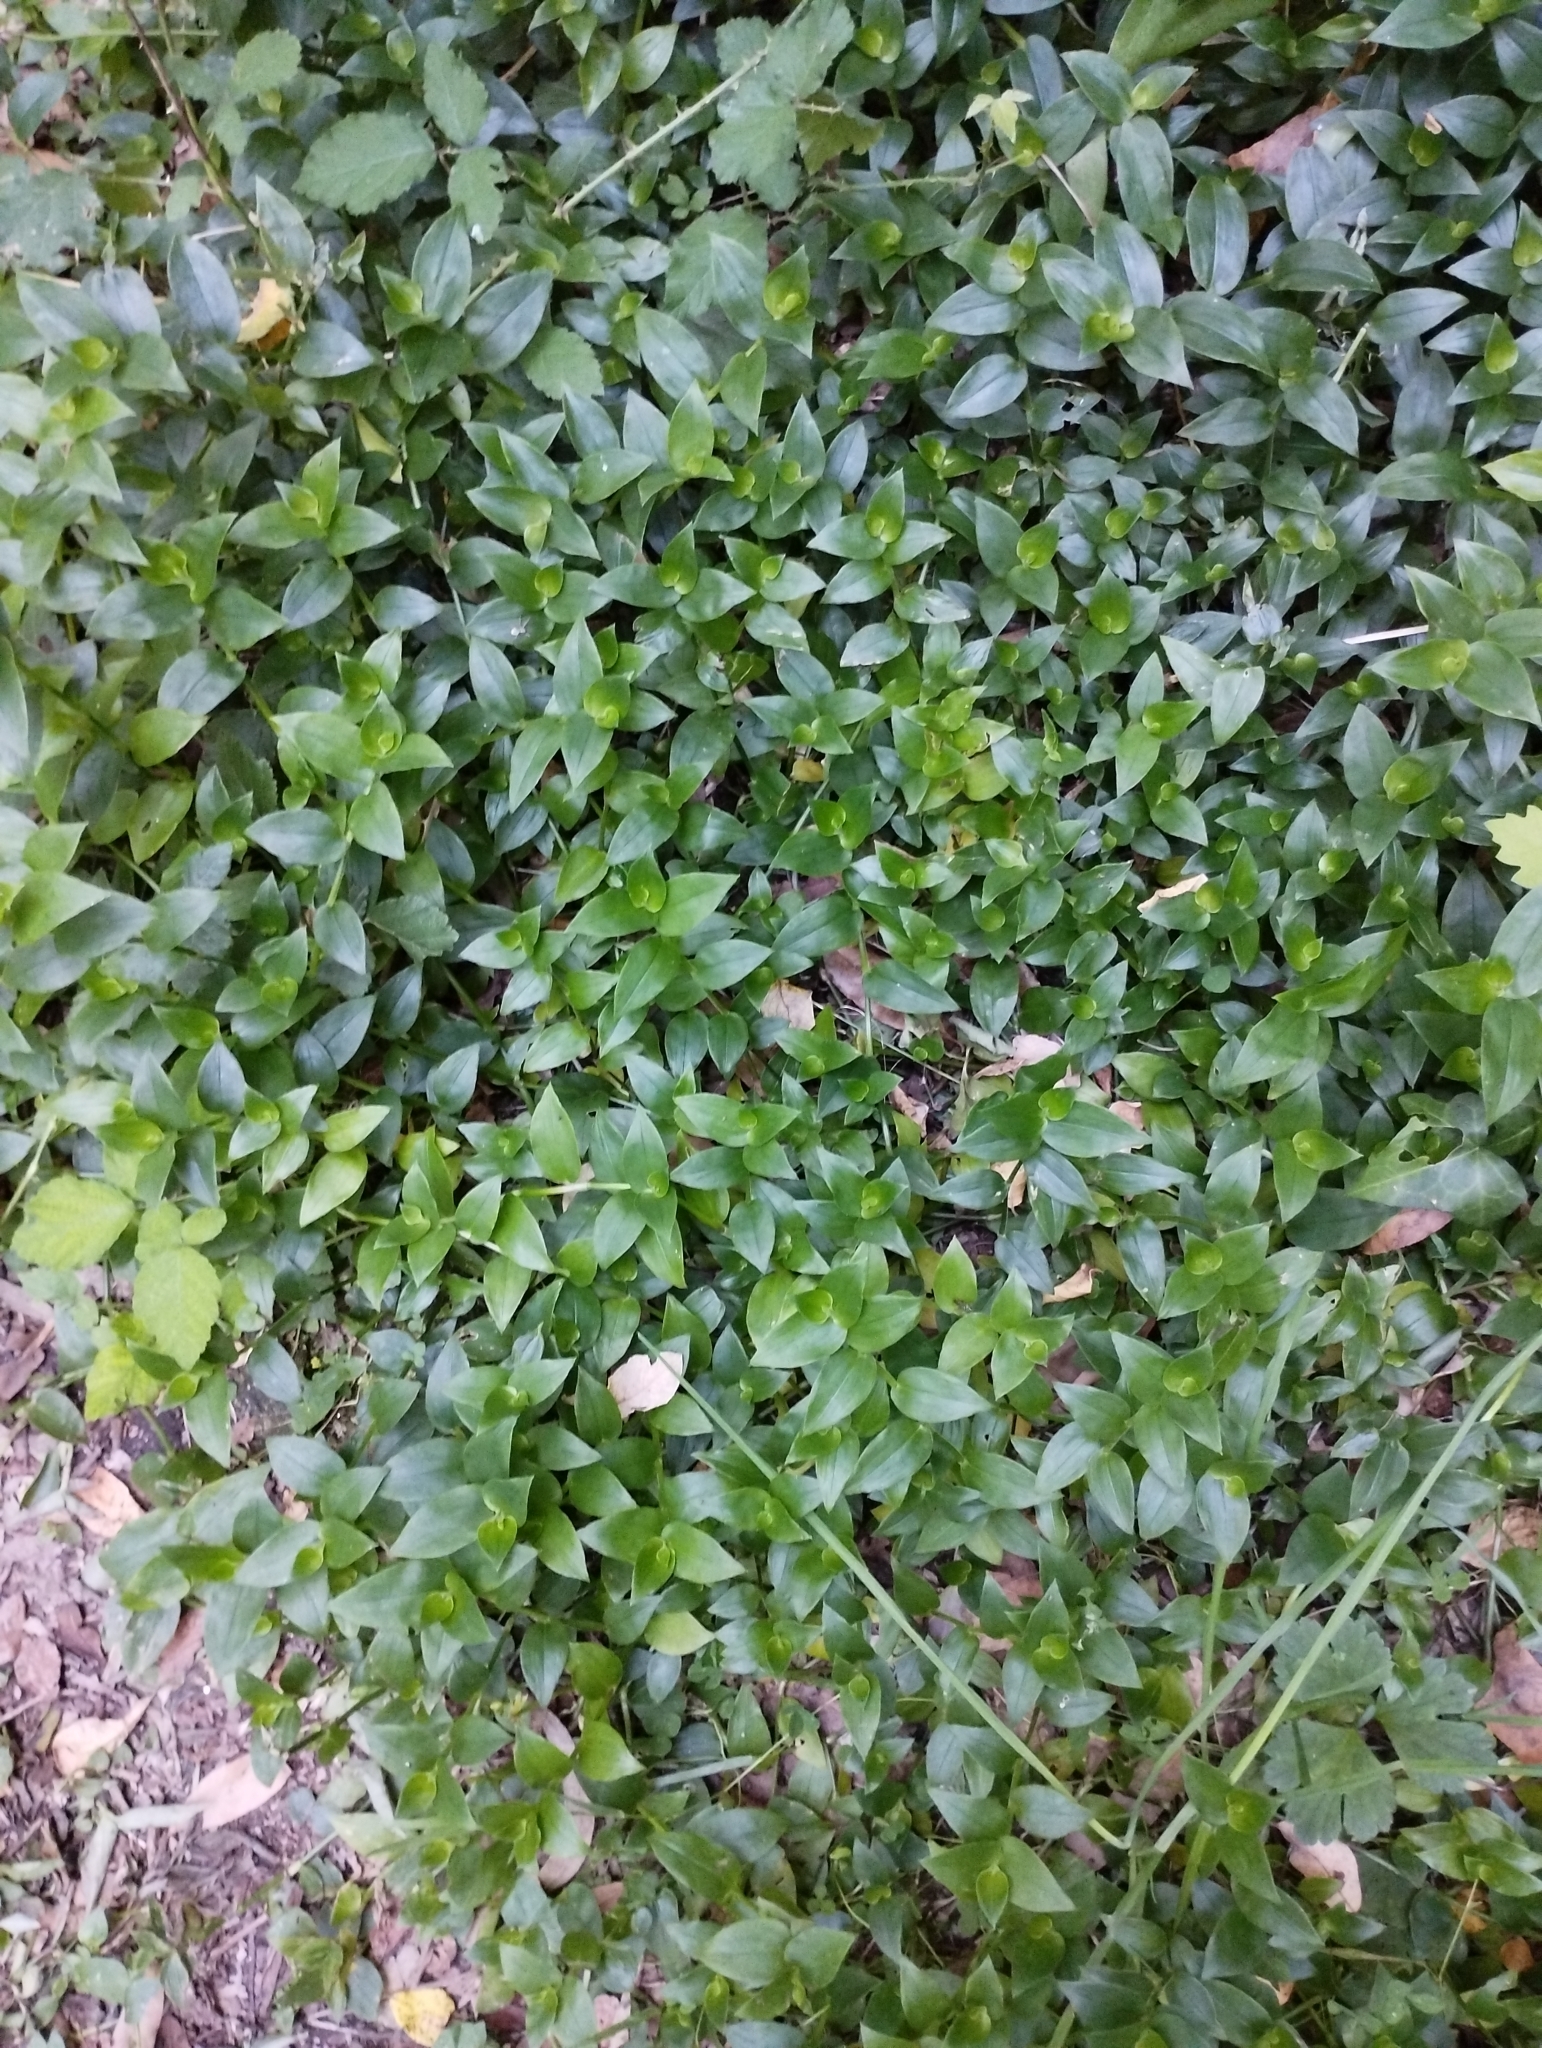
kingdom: Plantae
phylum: Tracheophyta
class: Liliopsida
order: Commelinales
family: Commelinaceae
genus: Tradescantia
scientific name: Tradescantia fluminensis
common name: Wandering-jew
